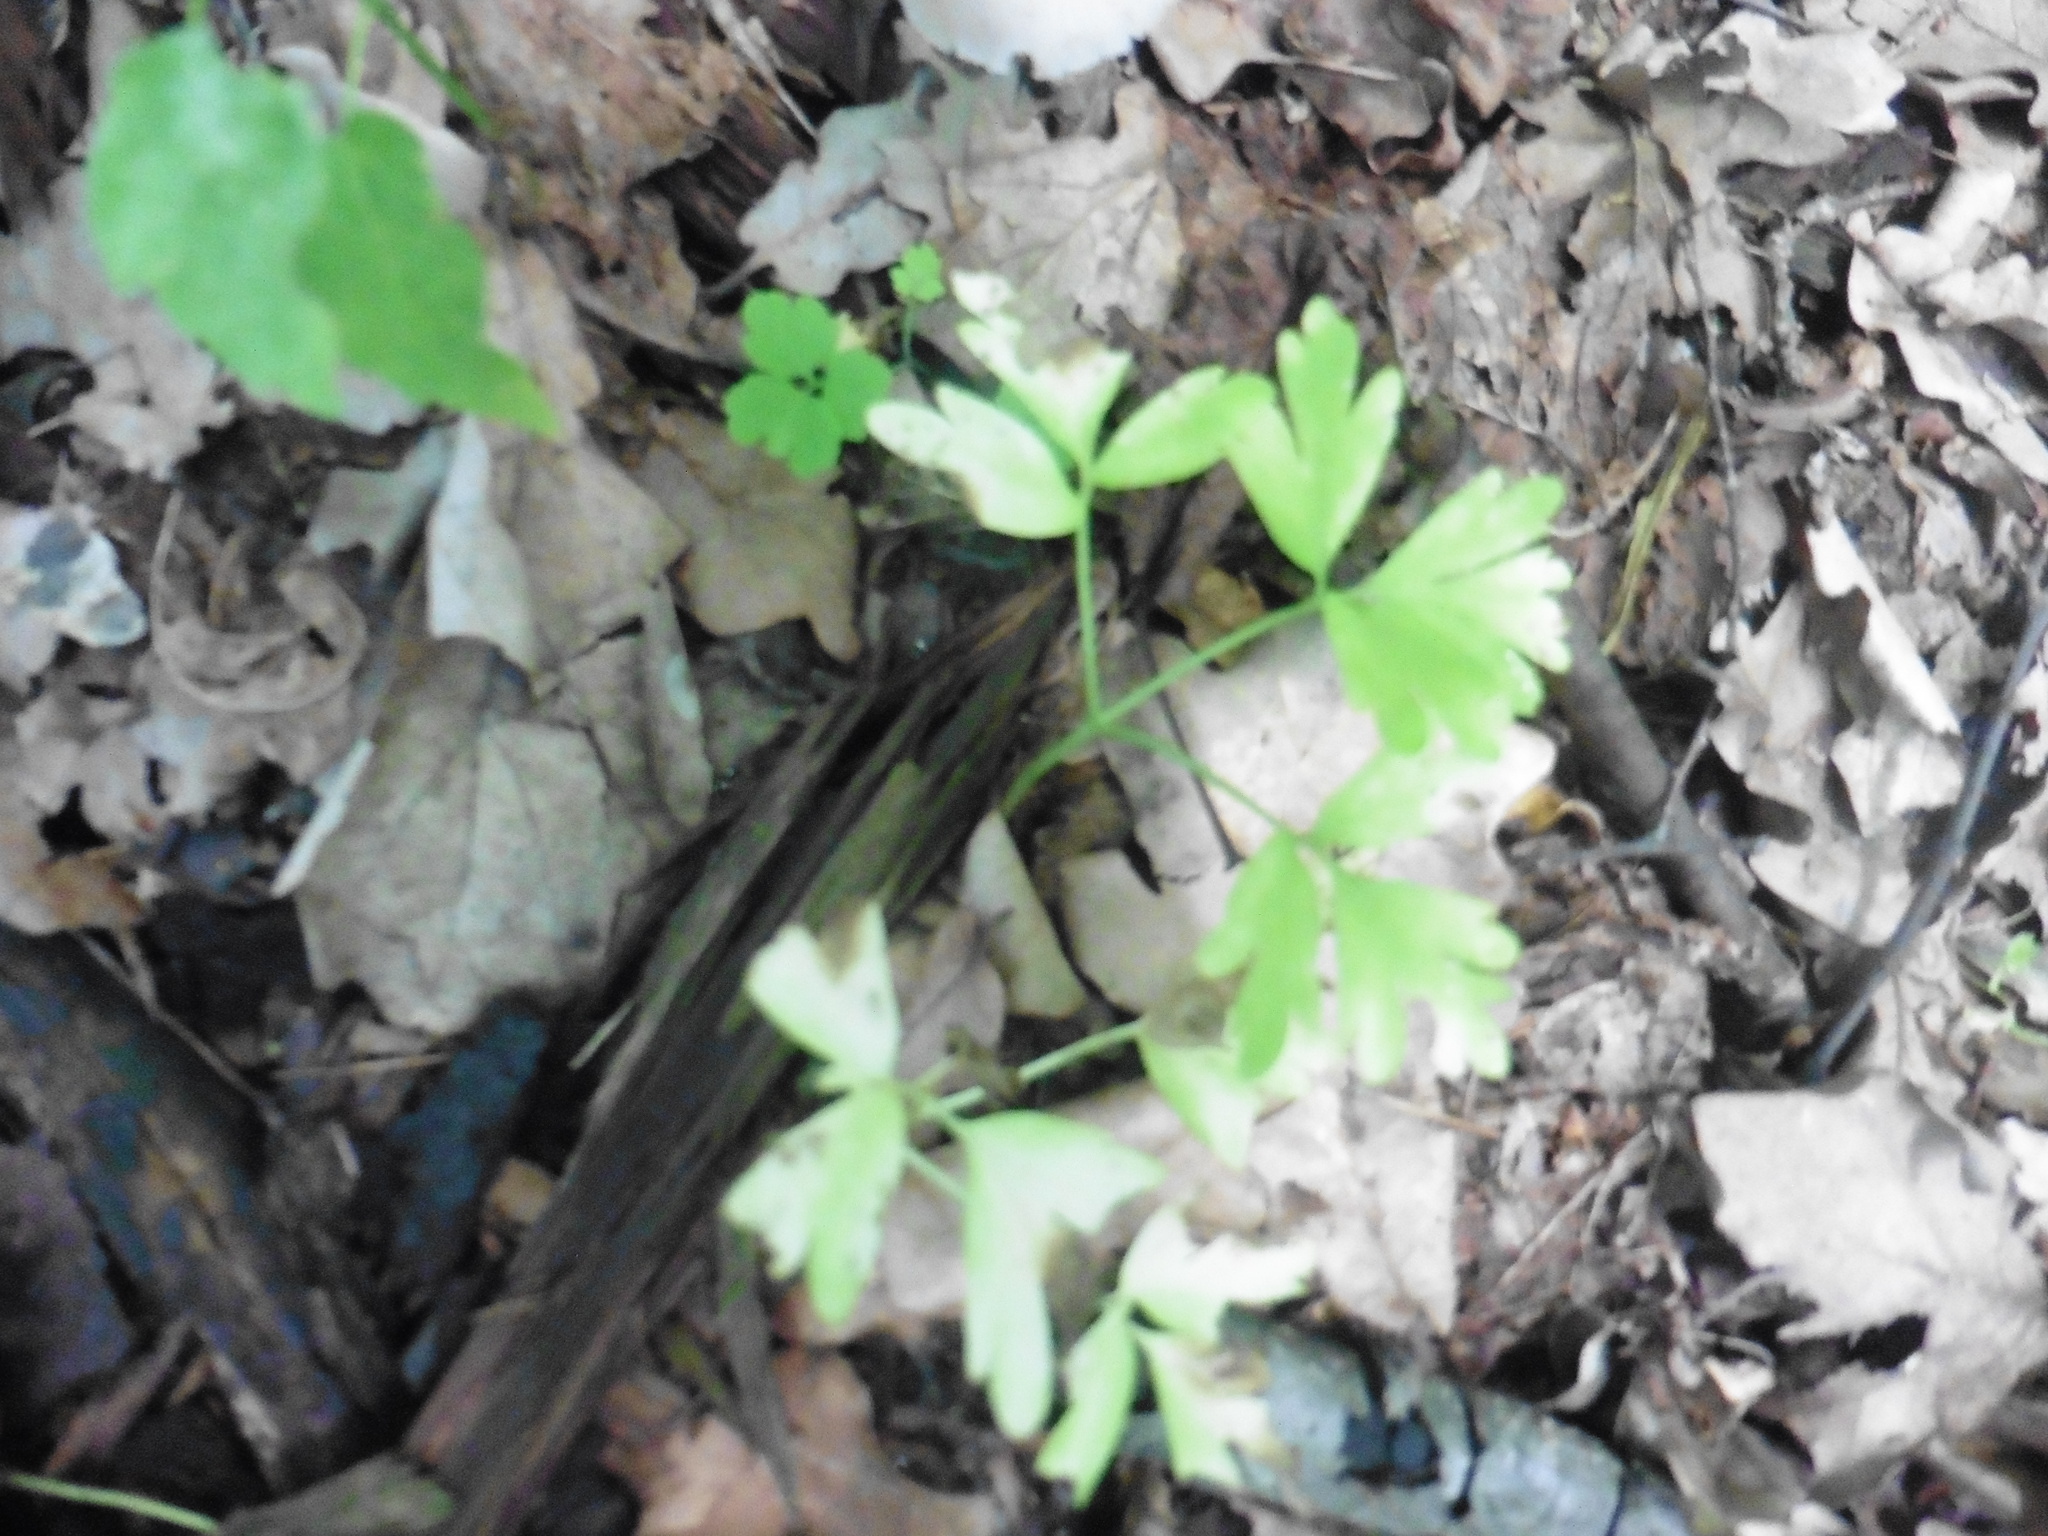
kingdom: Plantae
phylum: Tracheophyta
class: Magnoliopsida
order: Dipsacales
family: Viburnaceae
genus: Adoxa
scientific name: Adoxa moschatellina
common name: Moschatel
